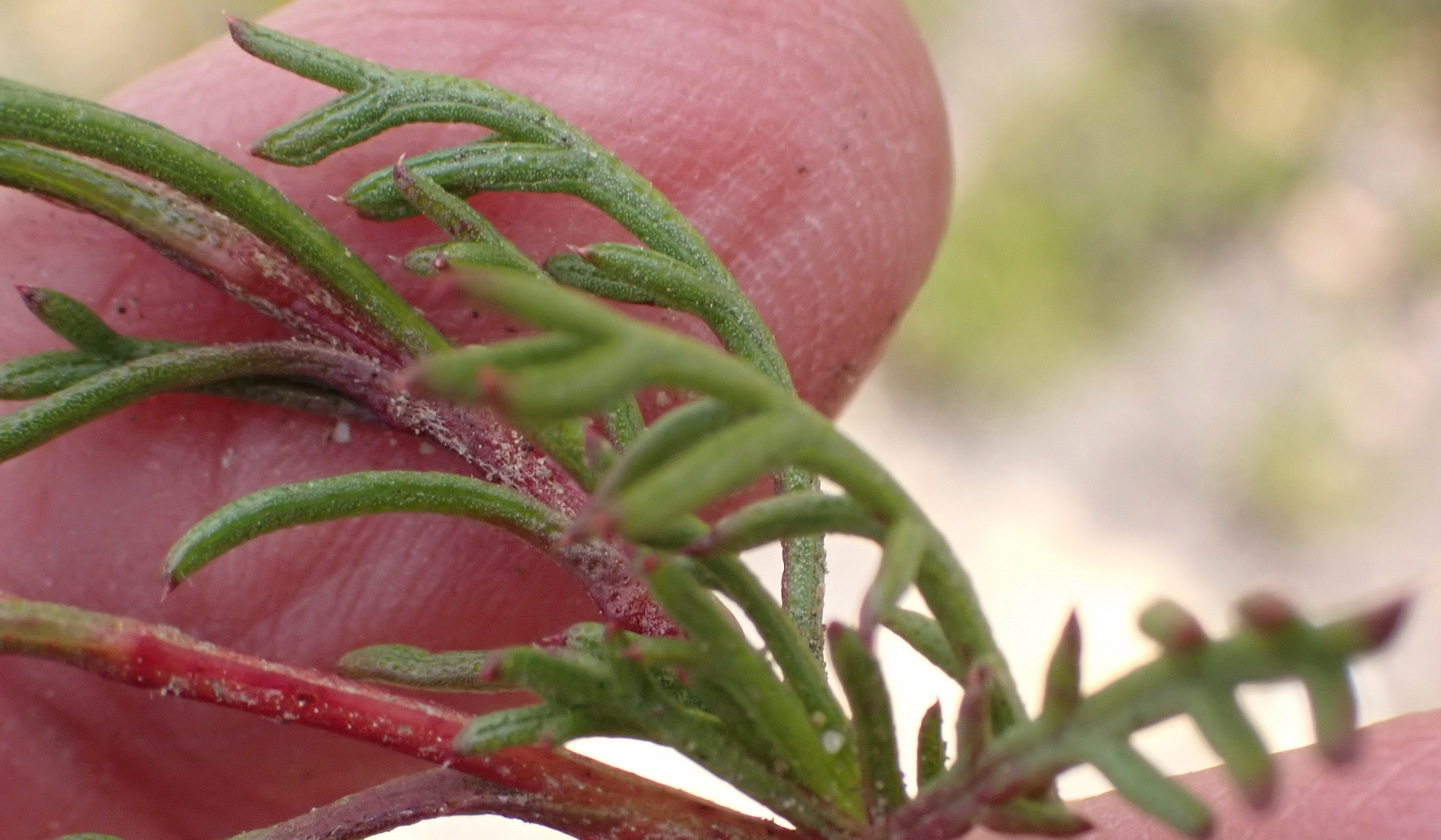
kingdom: Plantae
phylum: Tracheophyta
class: Magnoliopsida
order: Asterales
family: Asteraceae
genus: Ursinia
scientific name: Ursinia heterodonta
